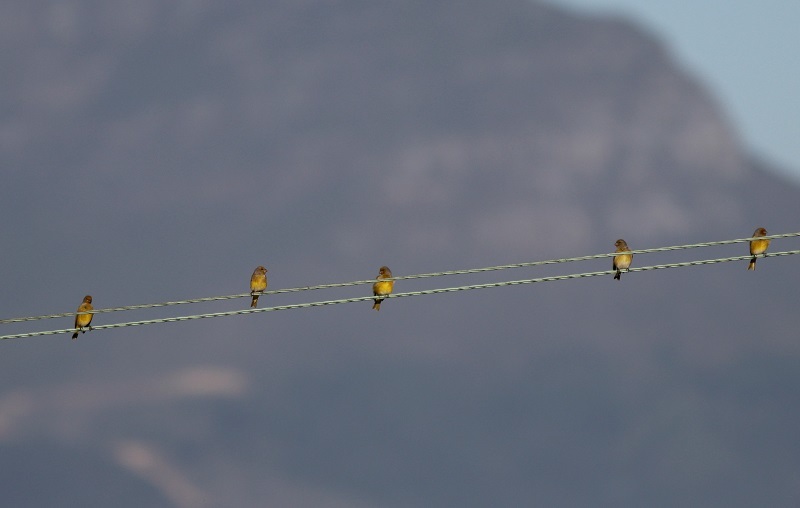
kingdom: Animalia
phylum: Chordata
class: Aves
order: Passeriformes
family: Fringillidae
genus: Serinus
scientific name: Serinus canicollis
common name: Cape canary
